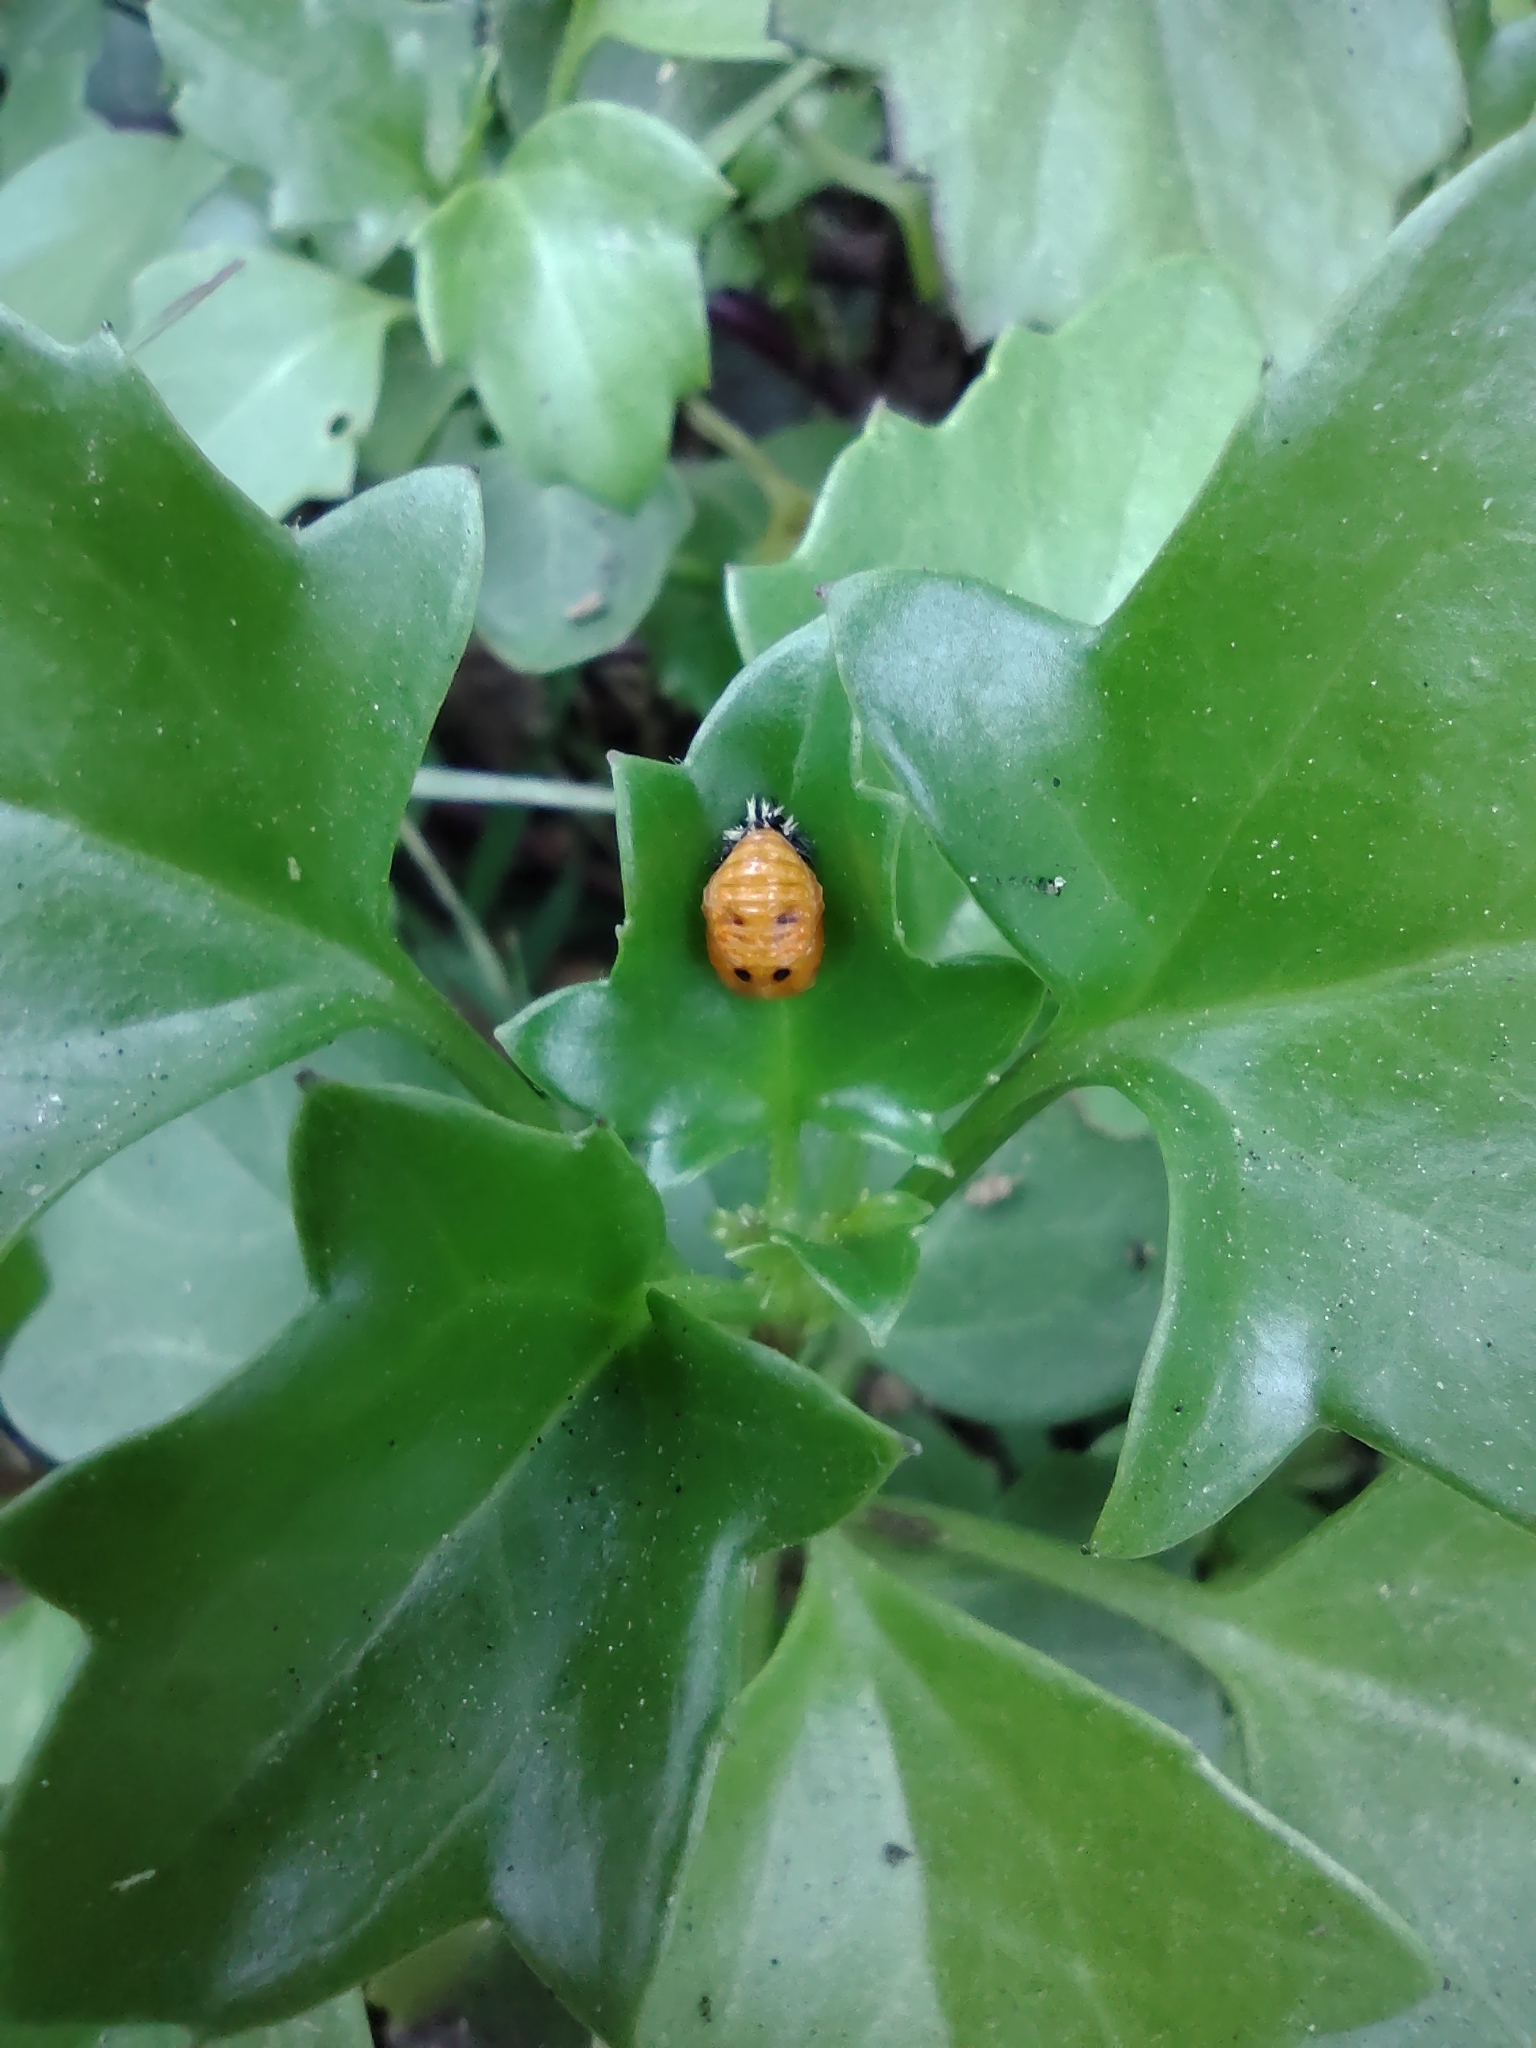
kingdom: Animalia
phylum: Arthropoda
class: Insecta
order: Coleoptera
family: Coccinellidae
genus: Harmonia
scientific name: Harmonia axyridis
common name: Harlequin ladybird
